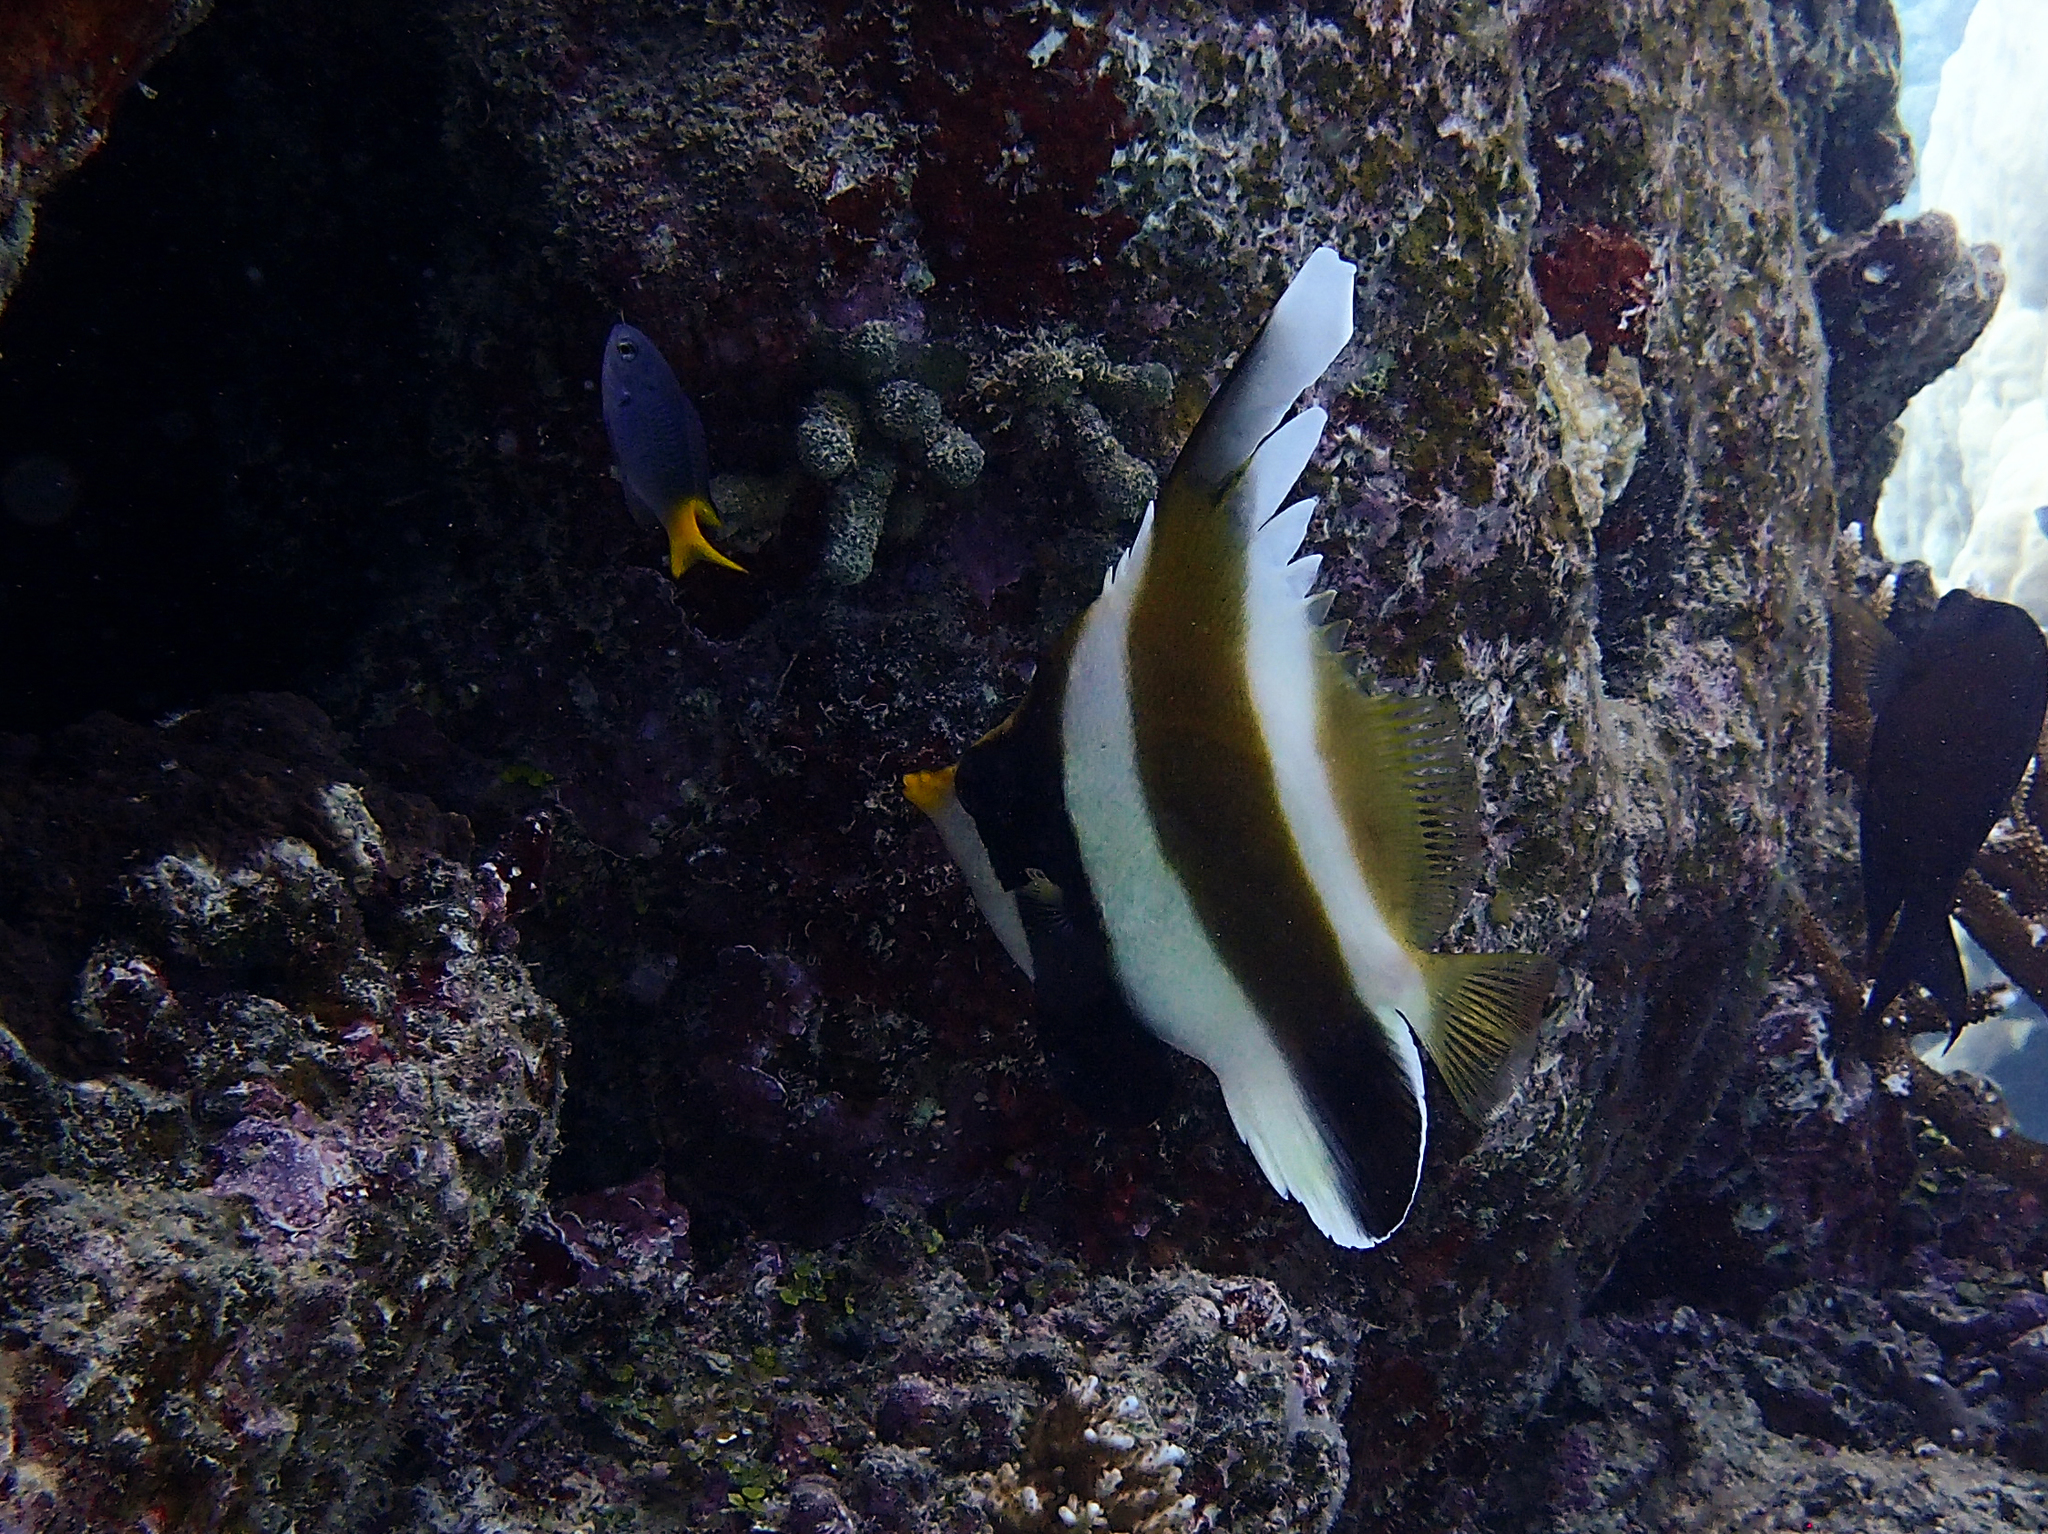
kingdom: Animalia
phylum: Chordata
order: Perciformes
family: Chaetodontidae
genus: Heniochus
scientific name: Heniochus chrysostomus
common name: Horned bannerfish
